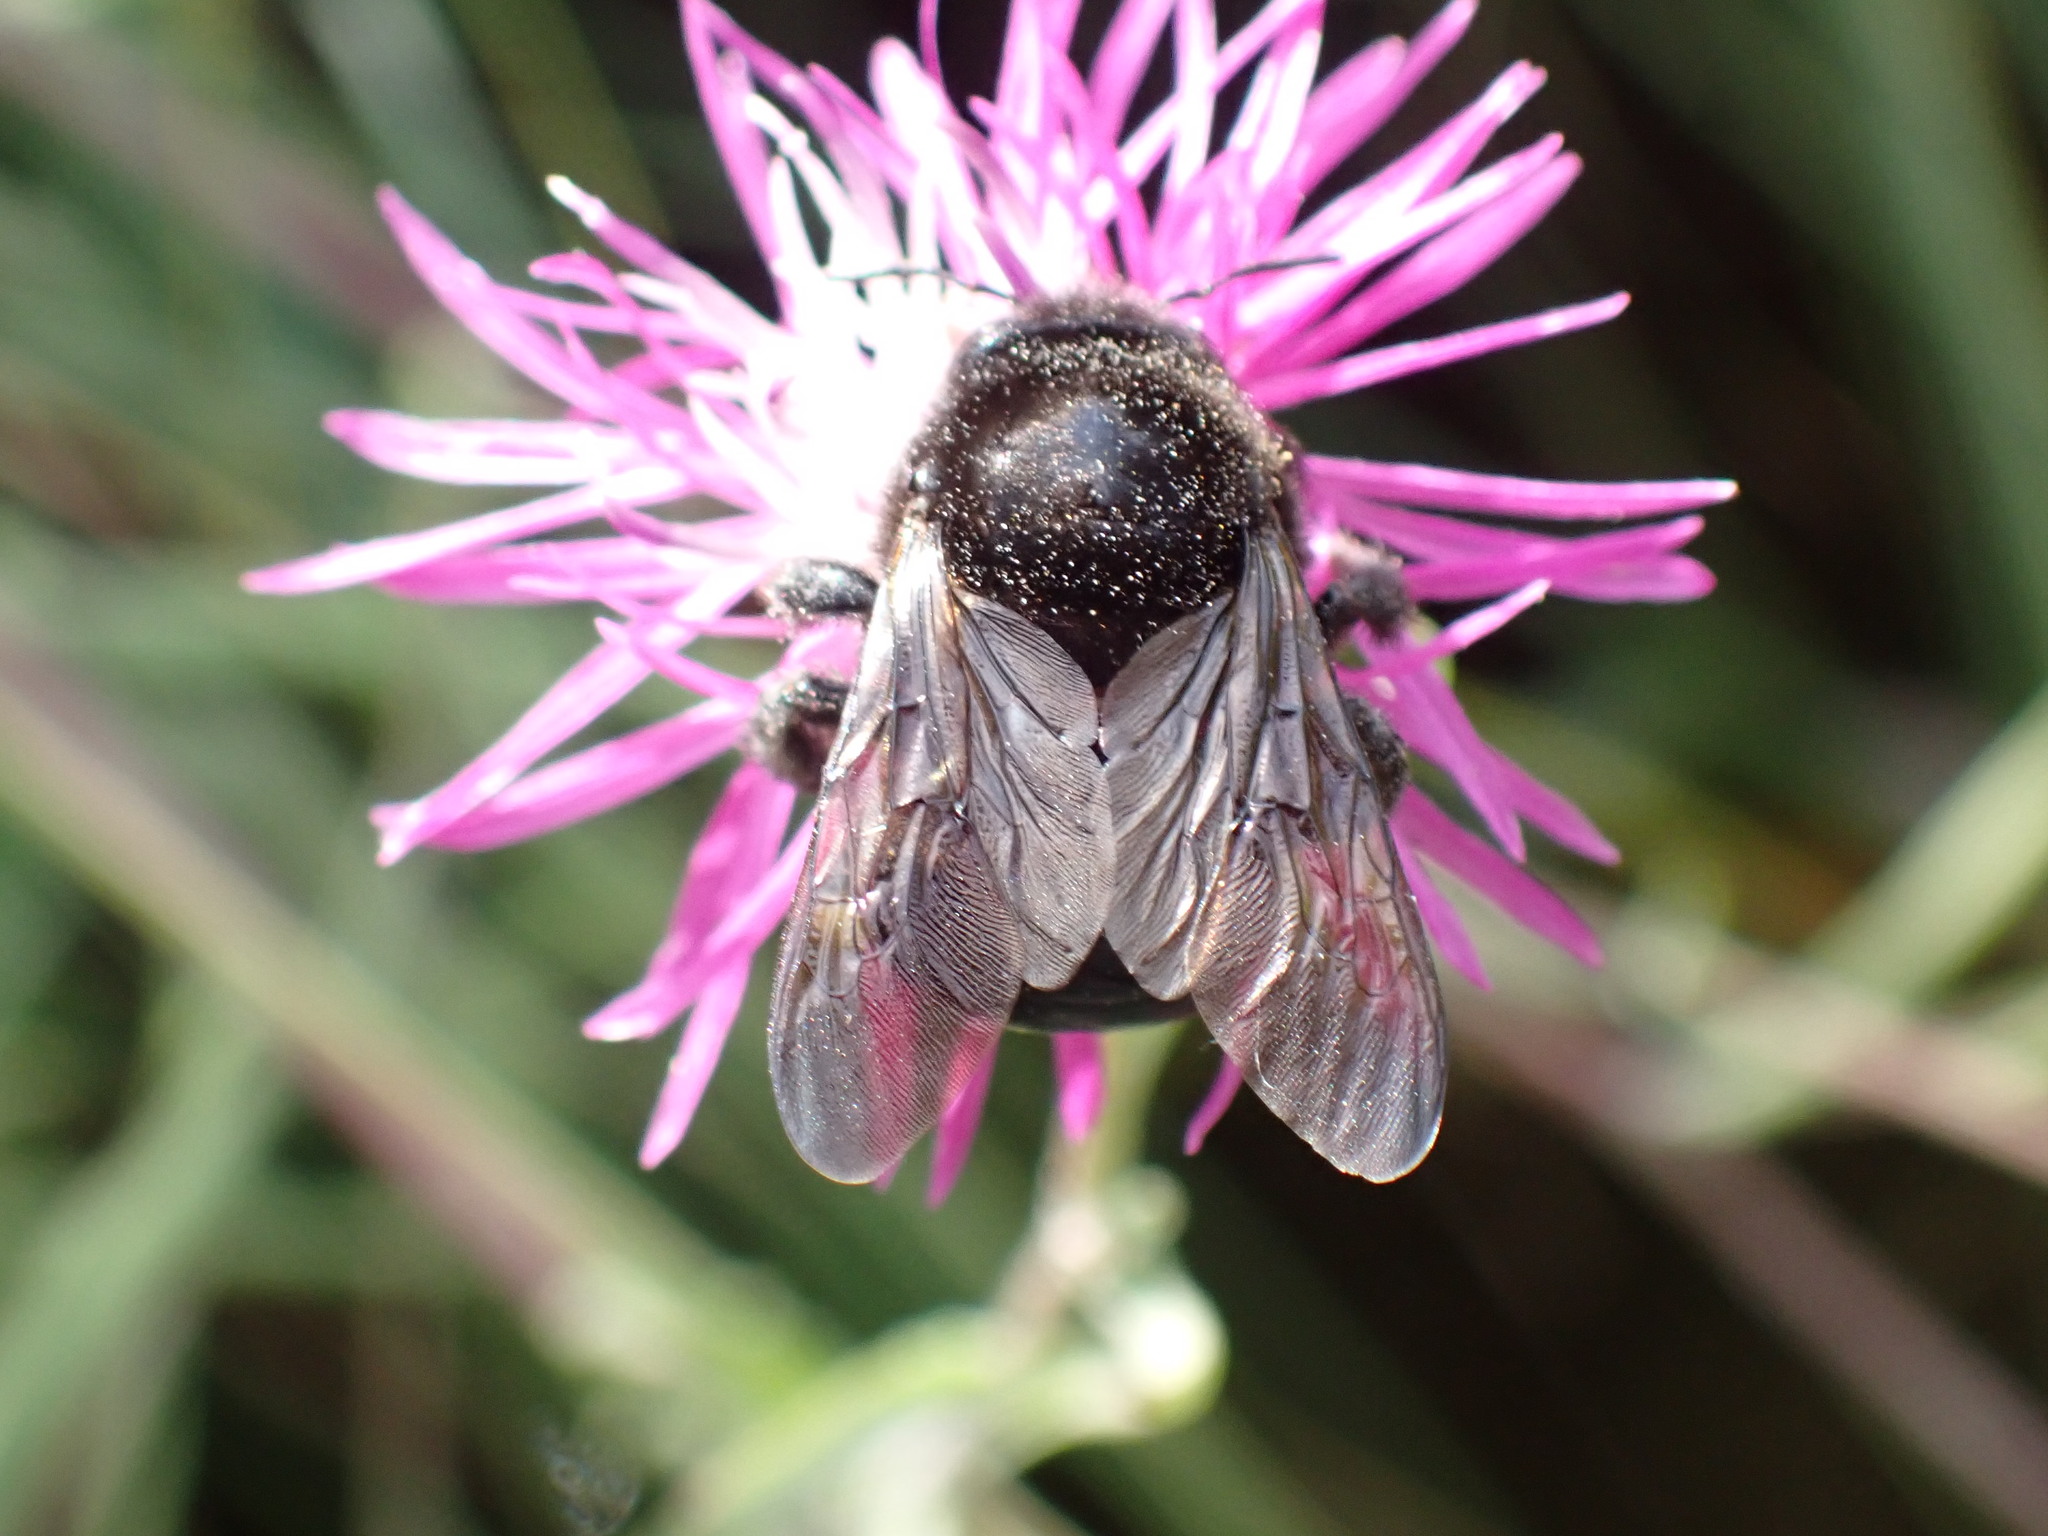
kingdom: Animalia
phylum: Arthropoda
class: Insecta
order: Hymenoptera
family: Apidae
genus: Xylocopa
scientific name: Xylocopa tabaniformis
